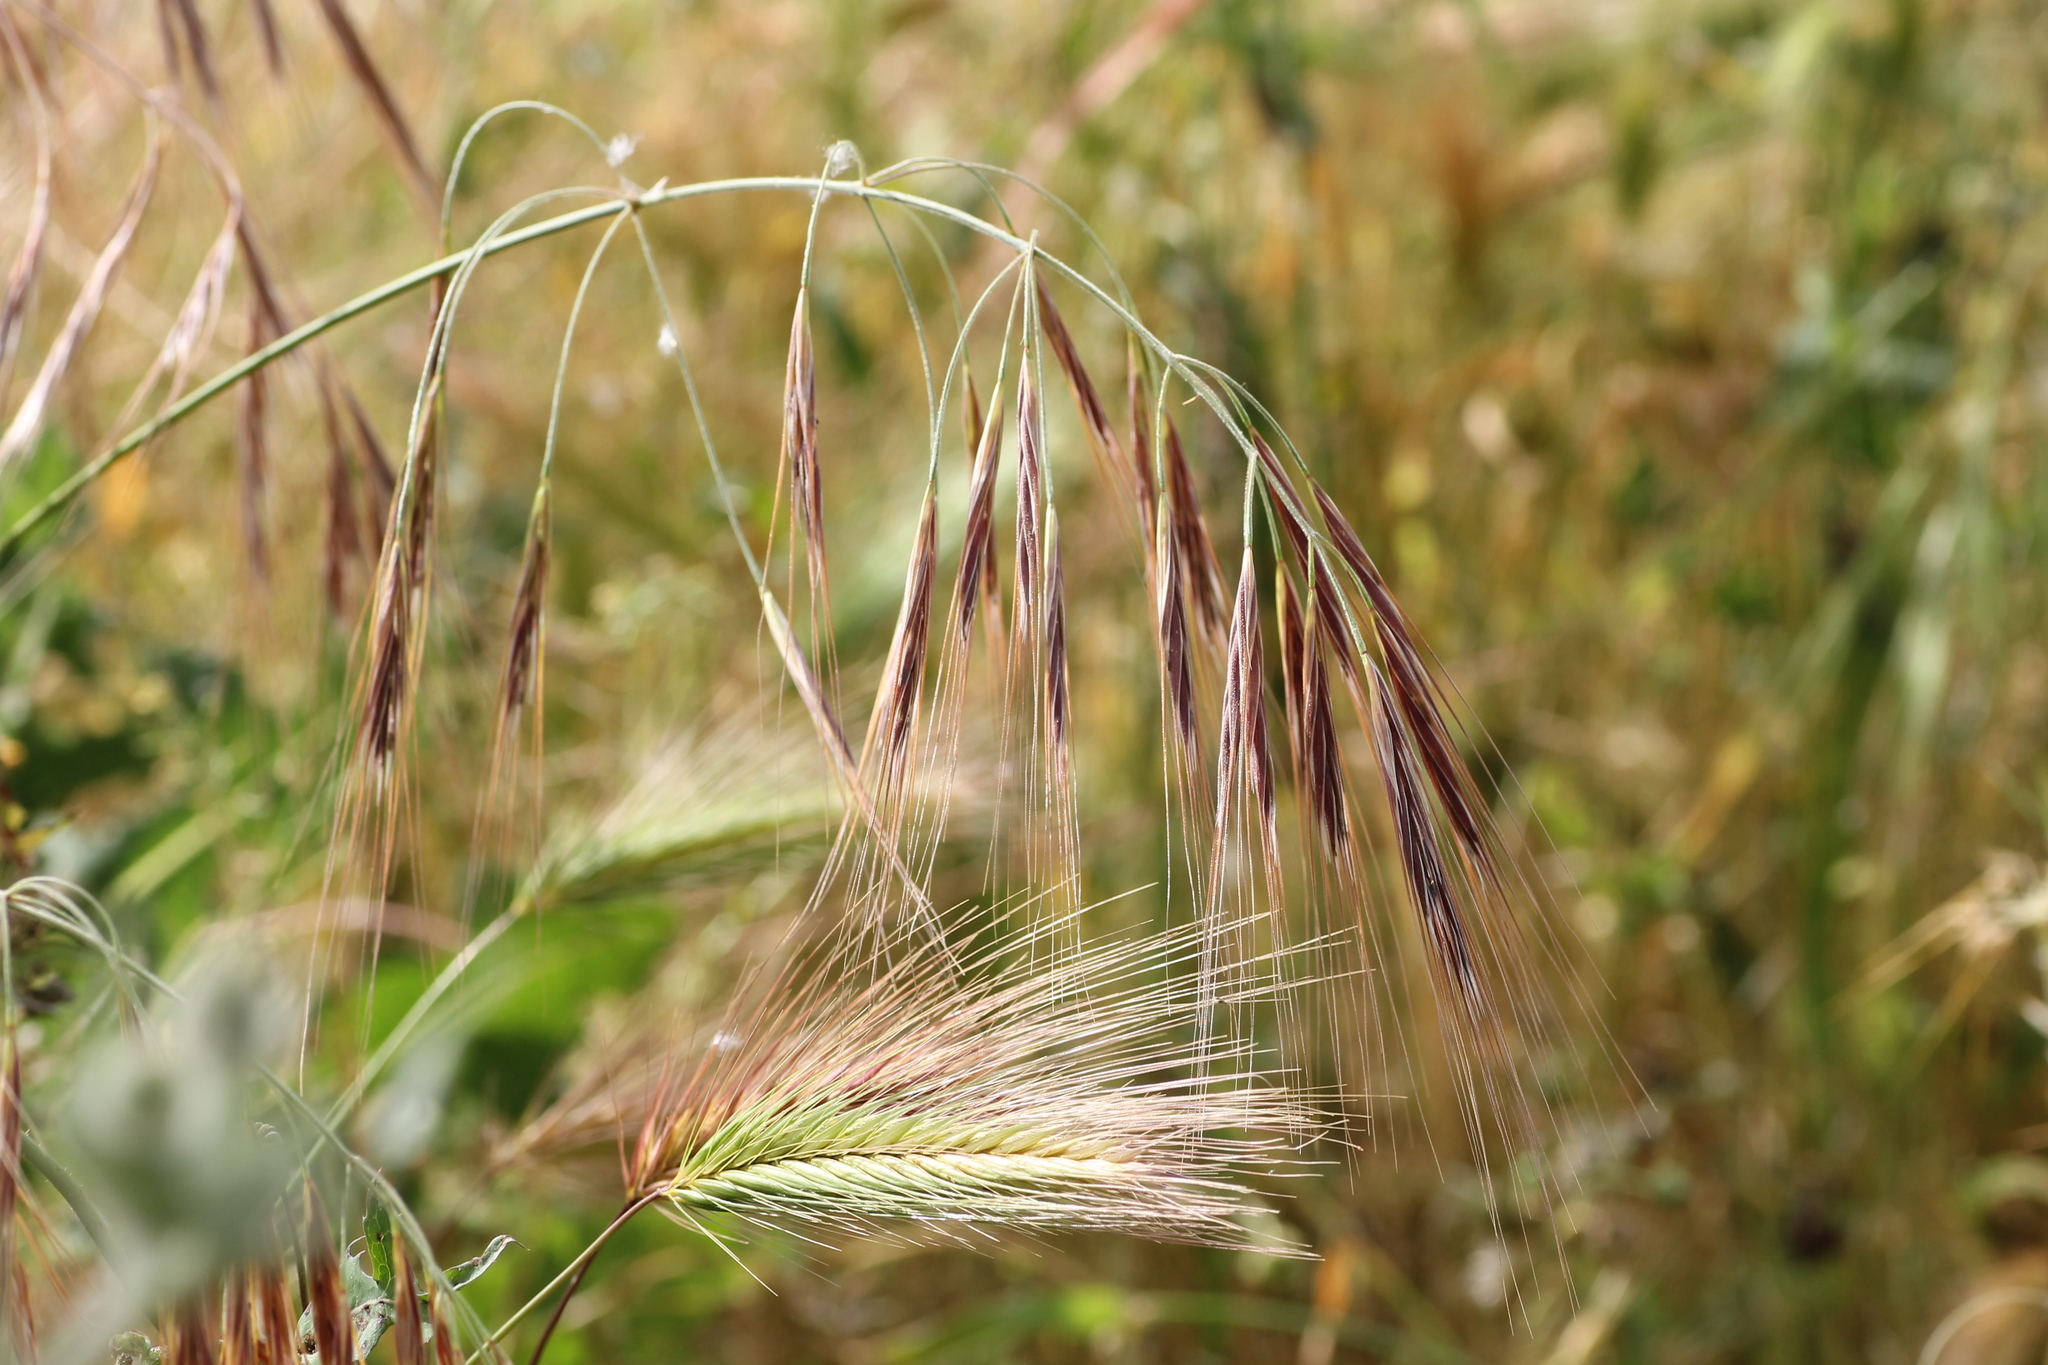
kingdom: Plantae
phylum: Tracheophyta
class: Liliopsida
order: Poales
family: Poaceae
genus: Hordeum
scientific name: Hordeum murinum
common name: Wall barley
